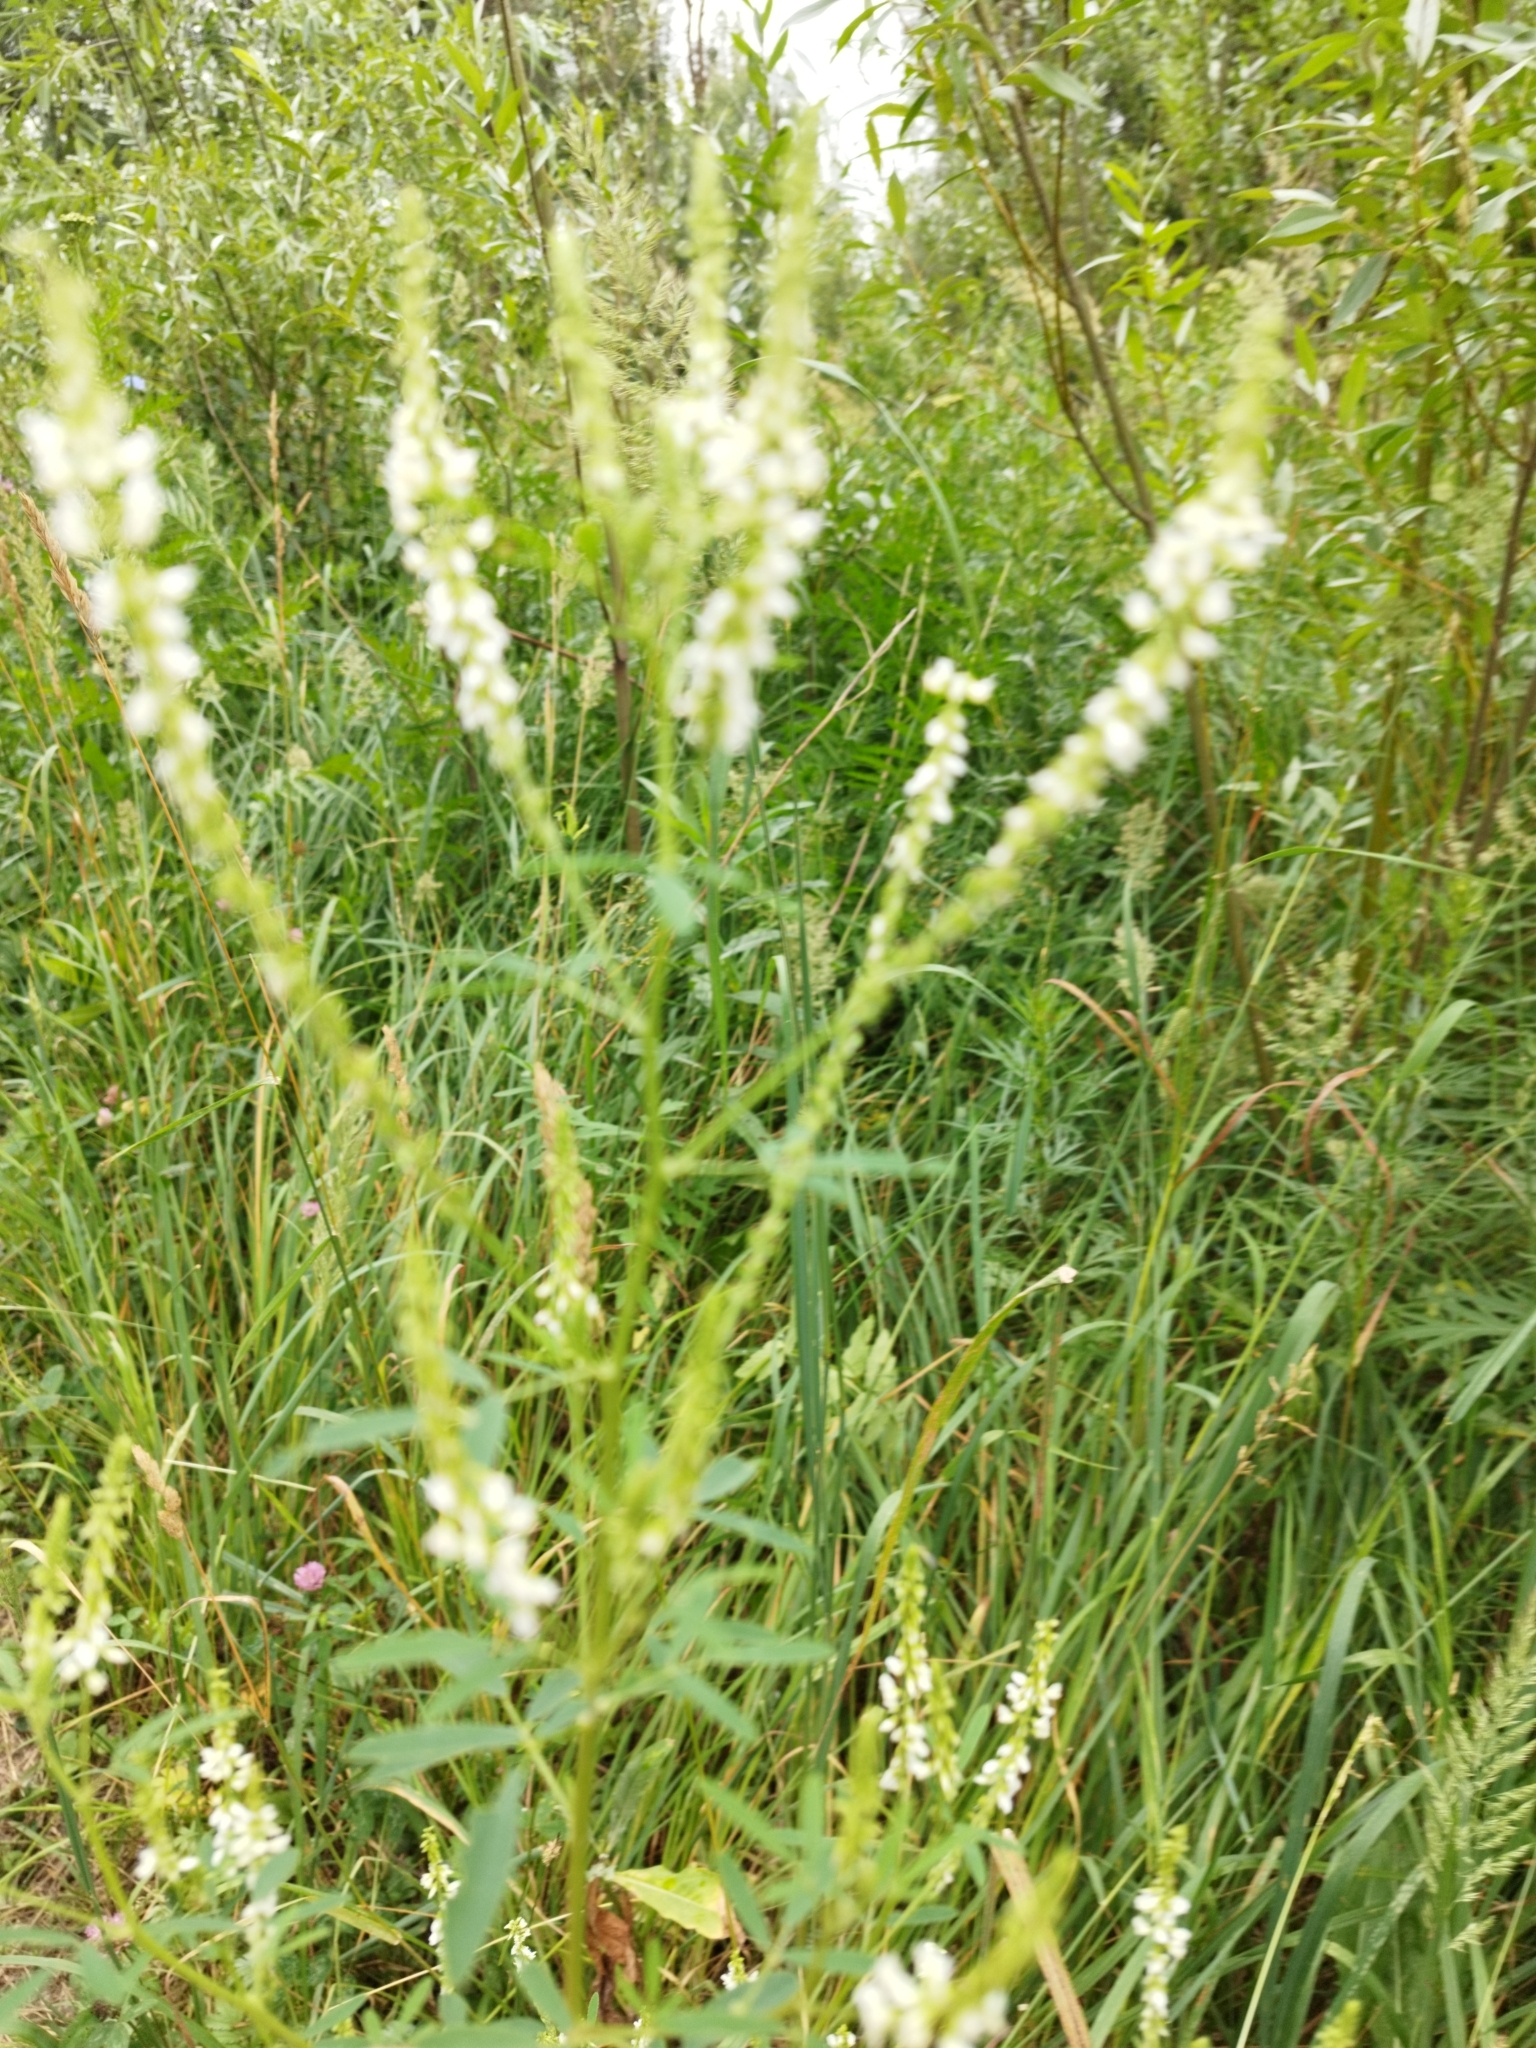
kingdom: Plantae
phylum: Tracheophyta
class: Magnoliopsida
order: Fabales
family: Fabaceae
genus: Melilotus
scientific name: Melilotus albus
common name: White melilot
